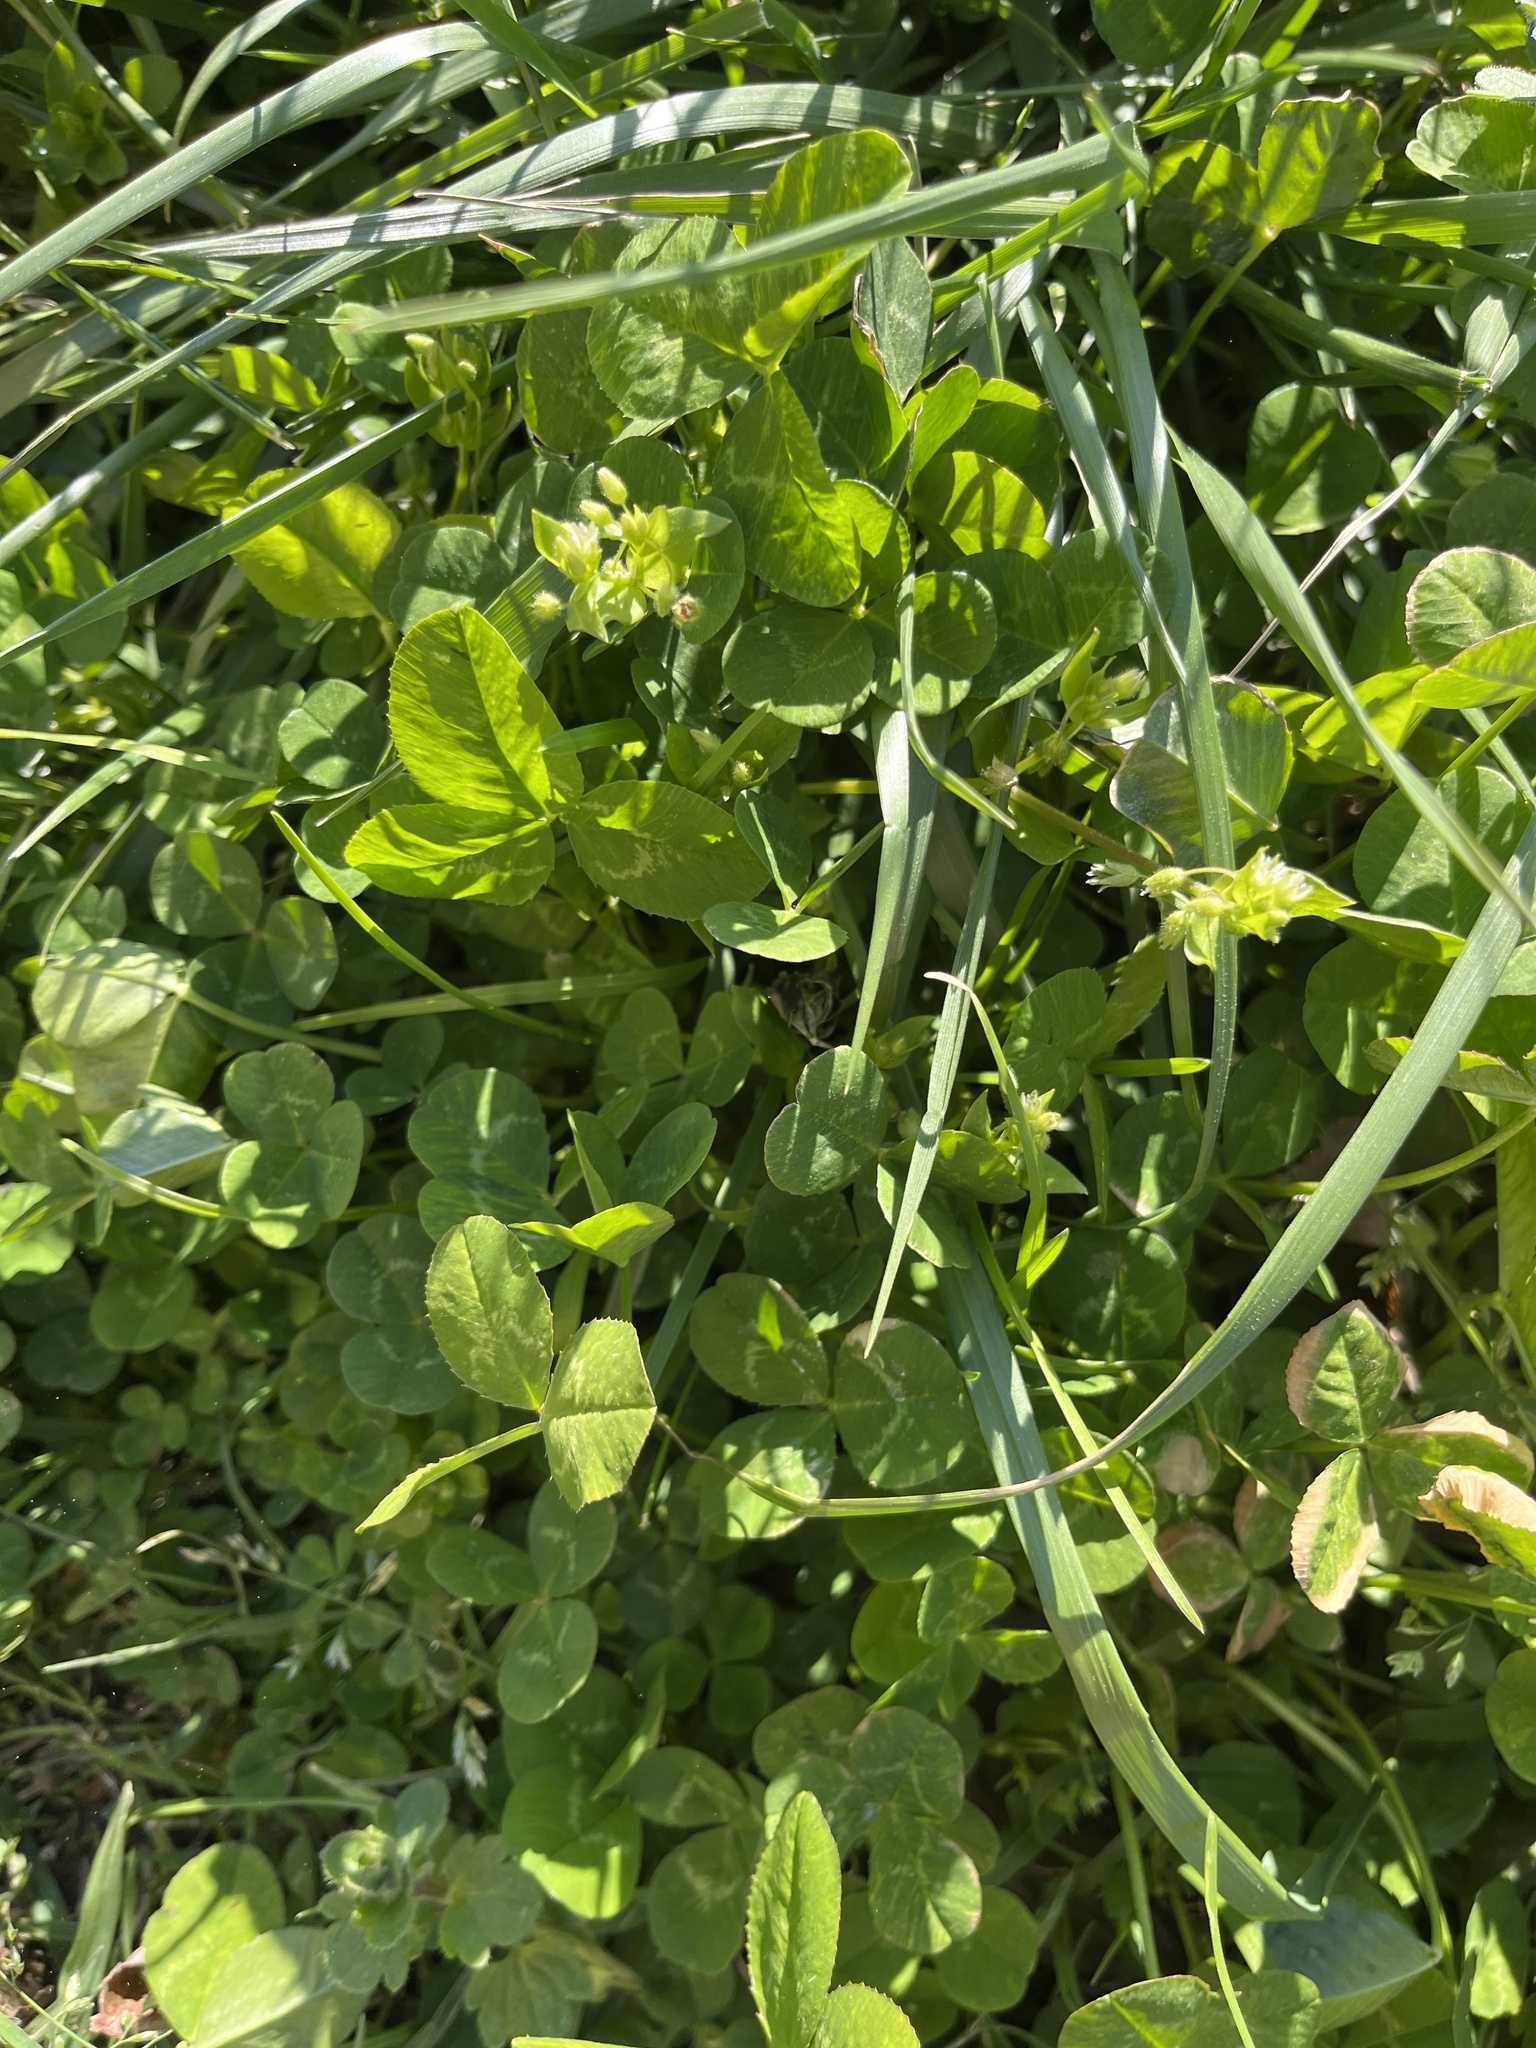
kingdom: Plantae
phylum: Tracheophyta
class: Magnoliopsida
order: Fabales
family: Fabaceae
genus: Trifolium
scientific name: Trifolium repens
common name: White clover
